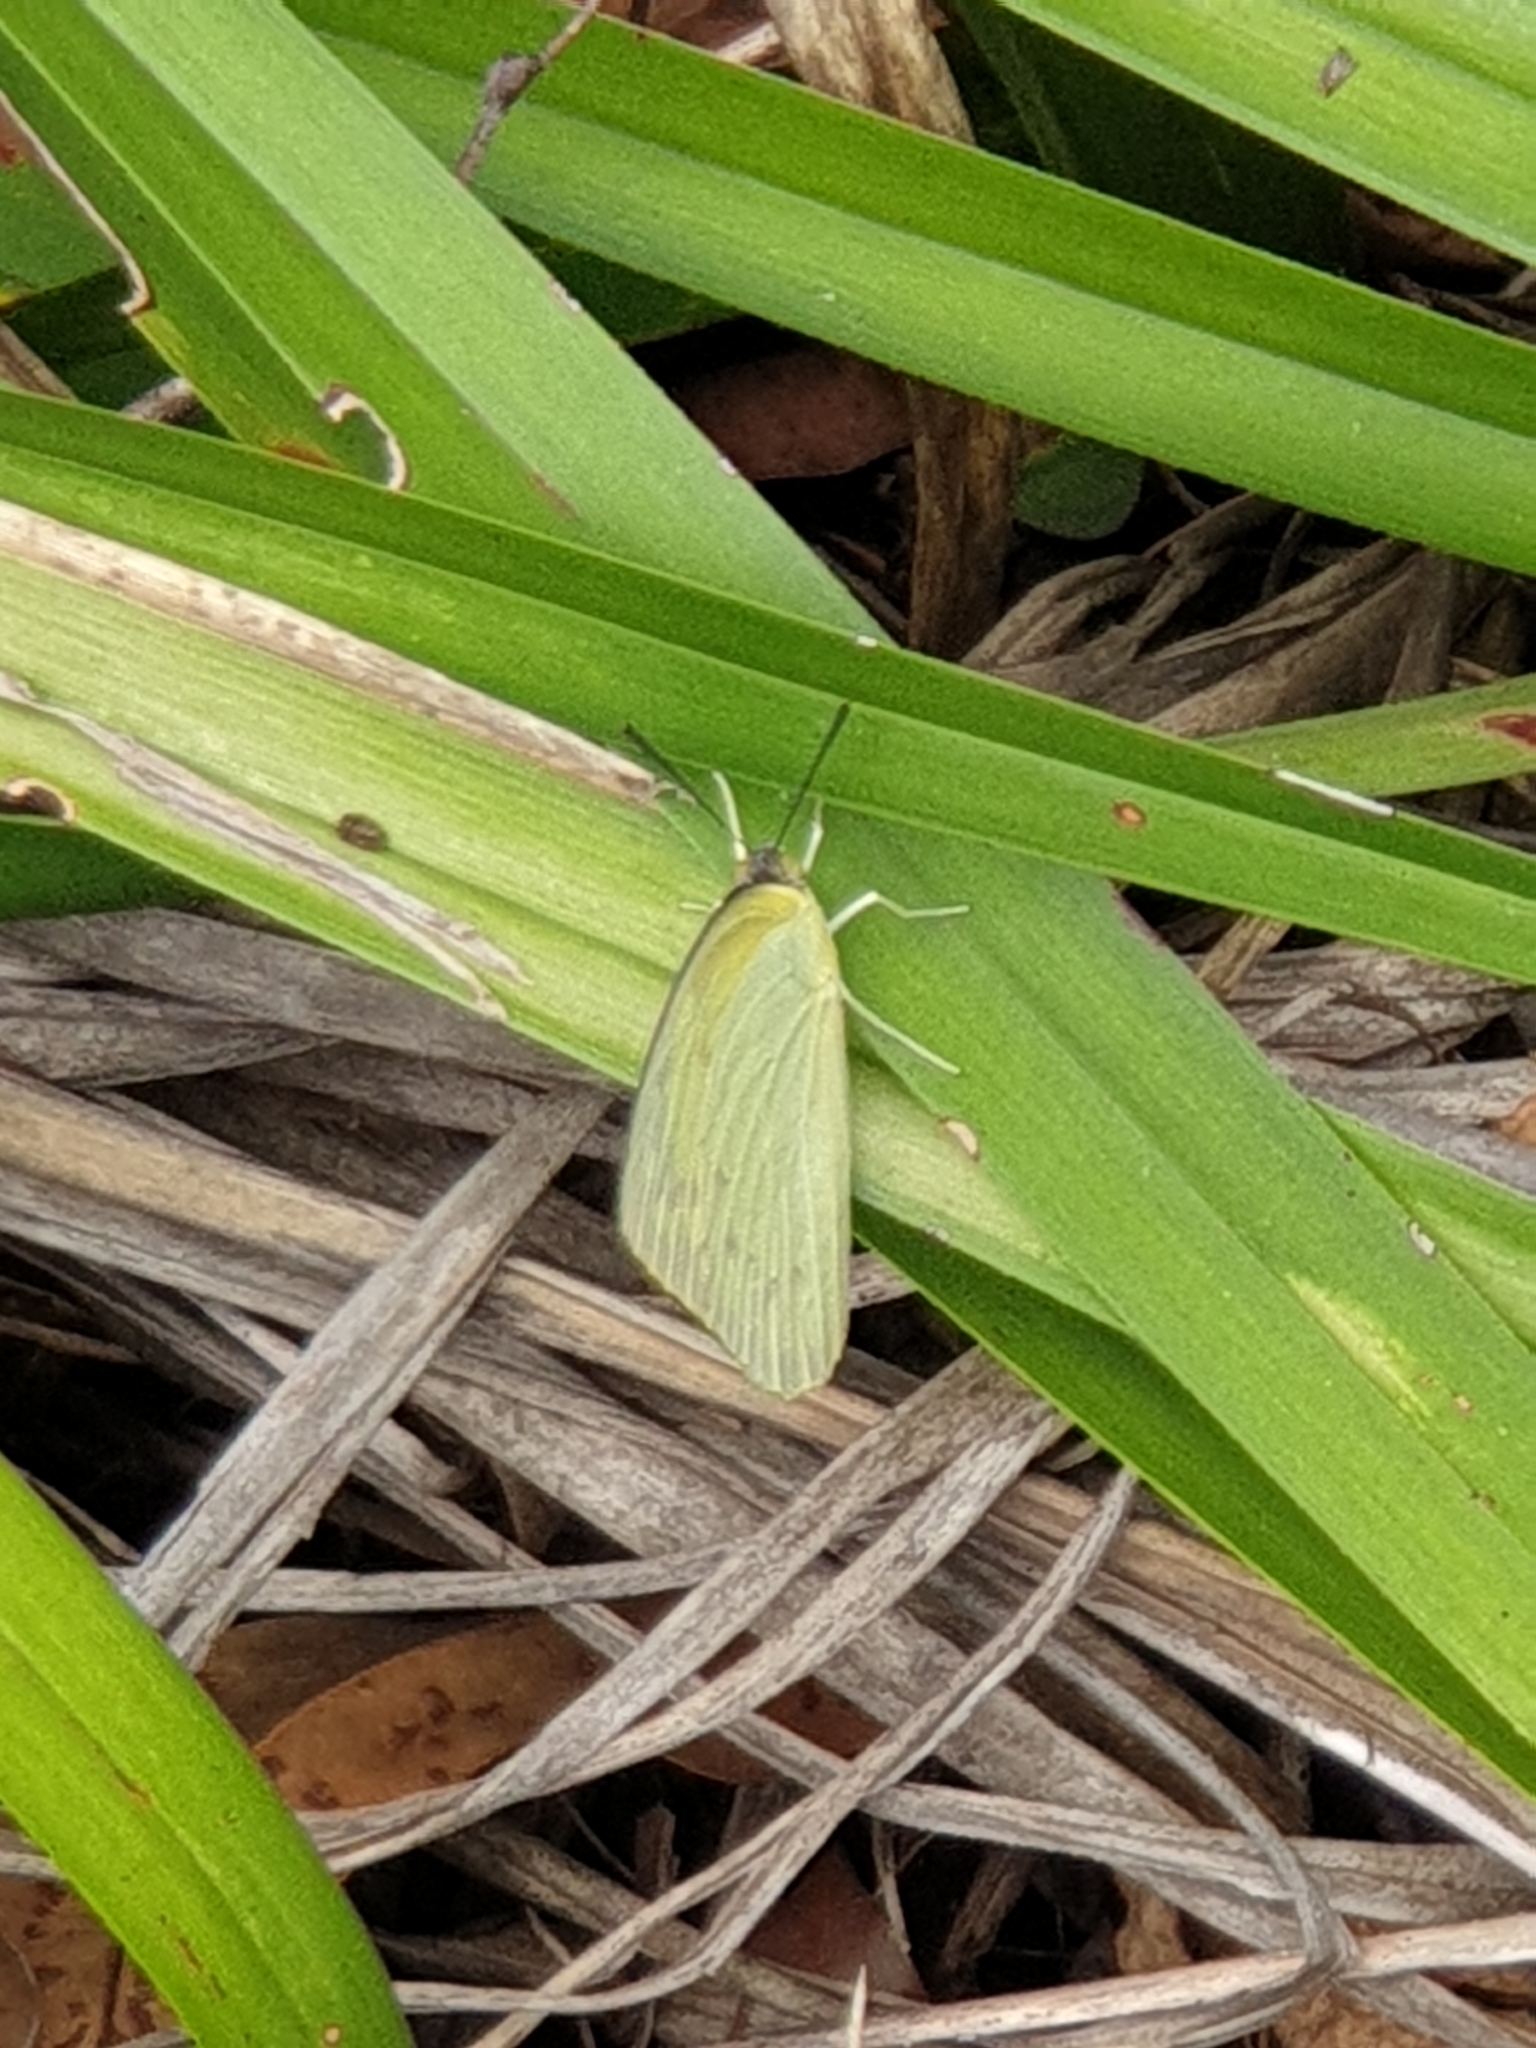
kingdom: Animalia
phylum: Arthropoda
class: Insecta
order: Lepidoptera
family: Pieridae
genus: Catopsilia
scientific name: Catopsilia pomona
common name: Common emigrant
